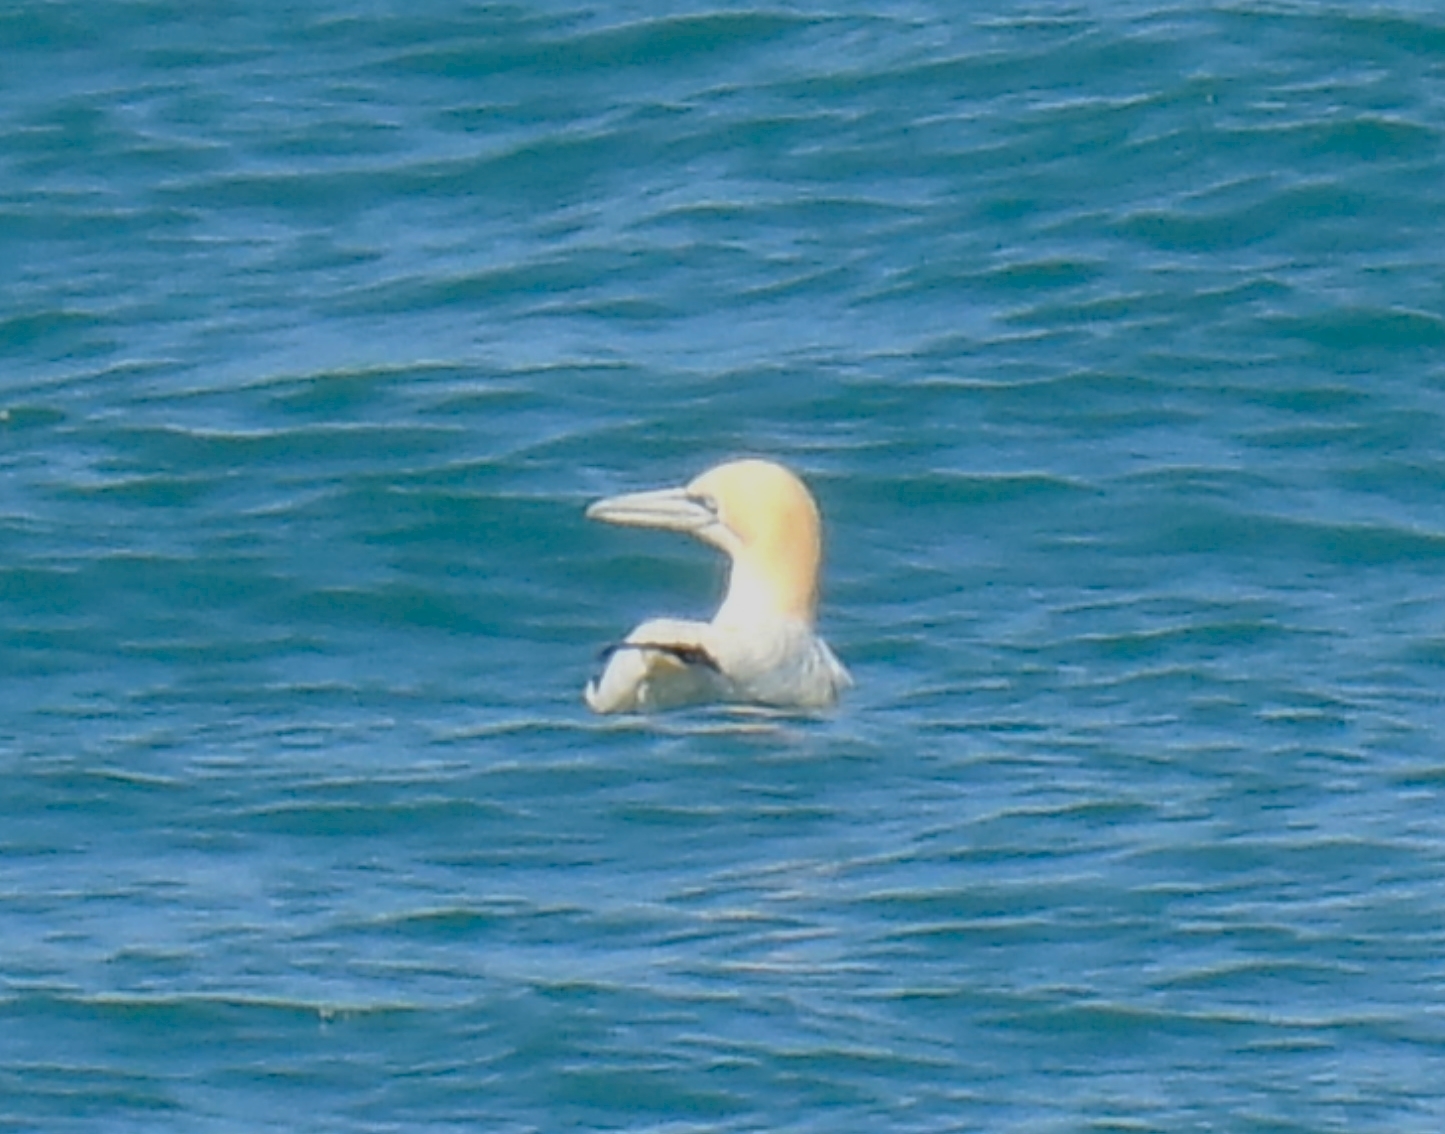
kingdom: Animalia
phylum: Chordata
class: Aves
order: Suliformes
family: Sulidae
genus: Morus
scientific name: Morus bassanus
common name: Northern gannet
